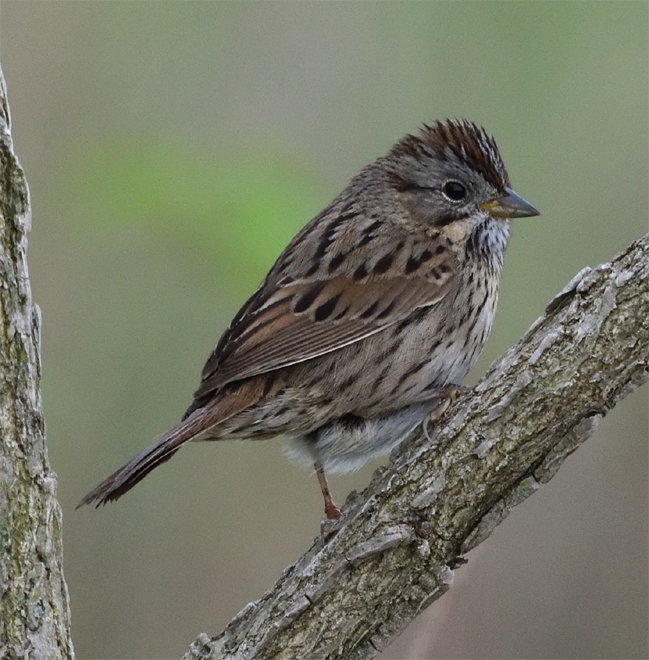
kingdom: Animalia
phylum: Chordata
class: Aves
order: Passeriformes
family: Passerellidae
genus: Melospiza
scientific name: Melospiza lincolnii
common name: Lincoln's sparrow
